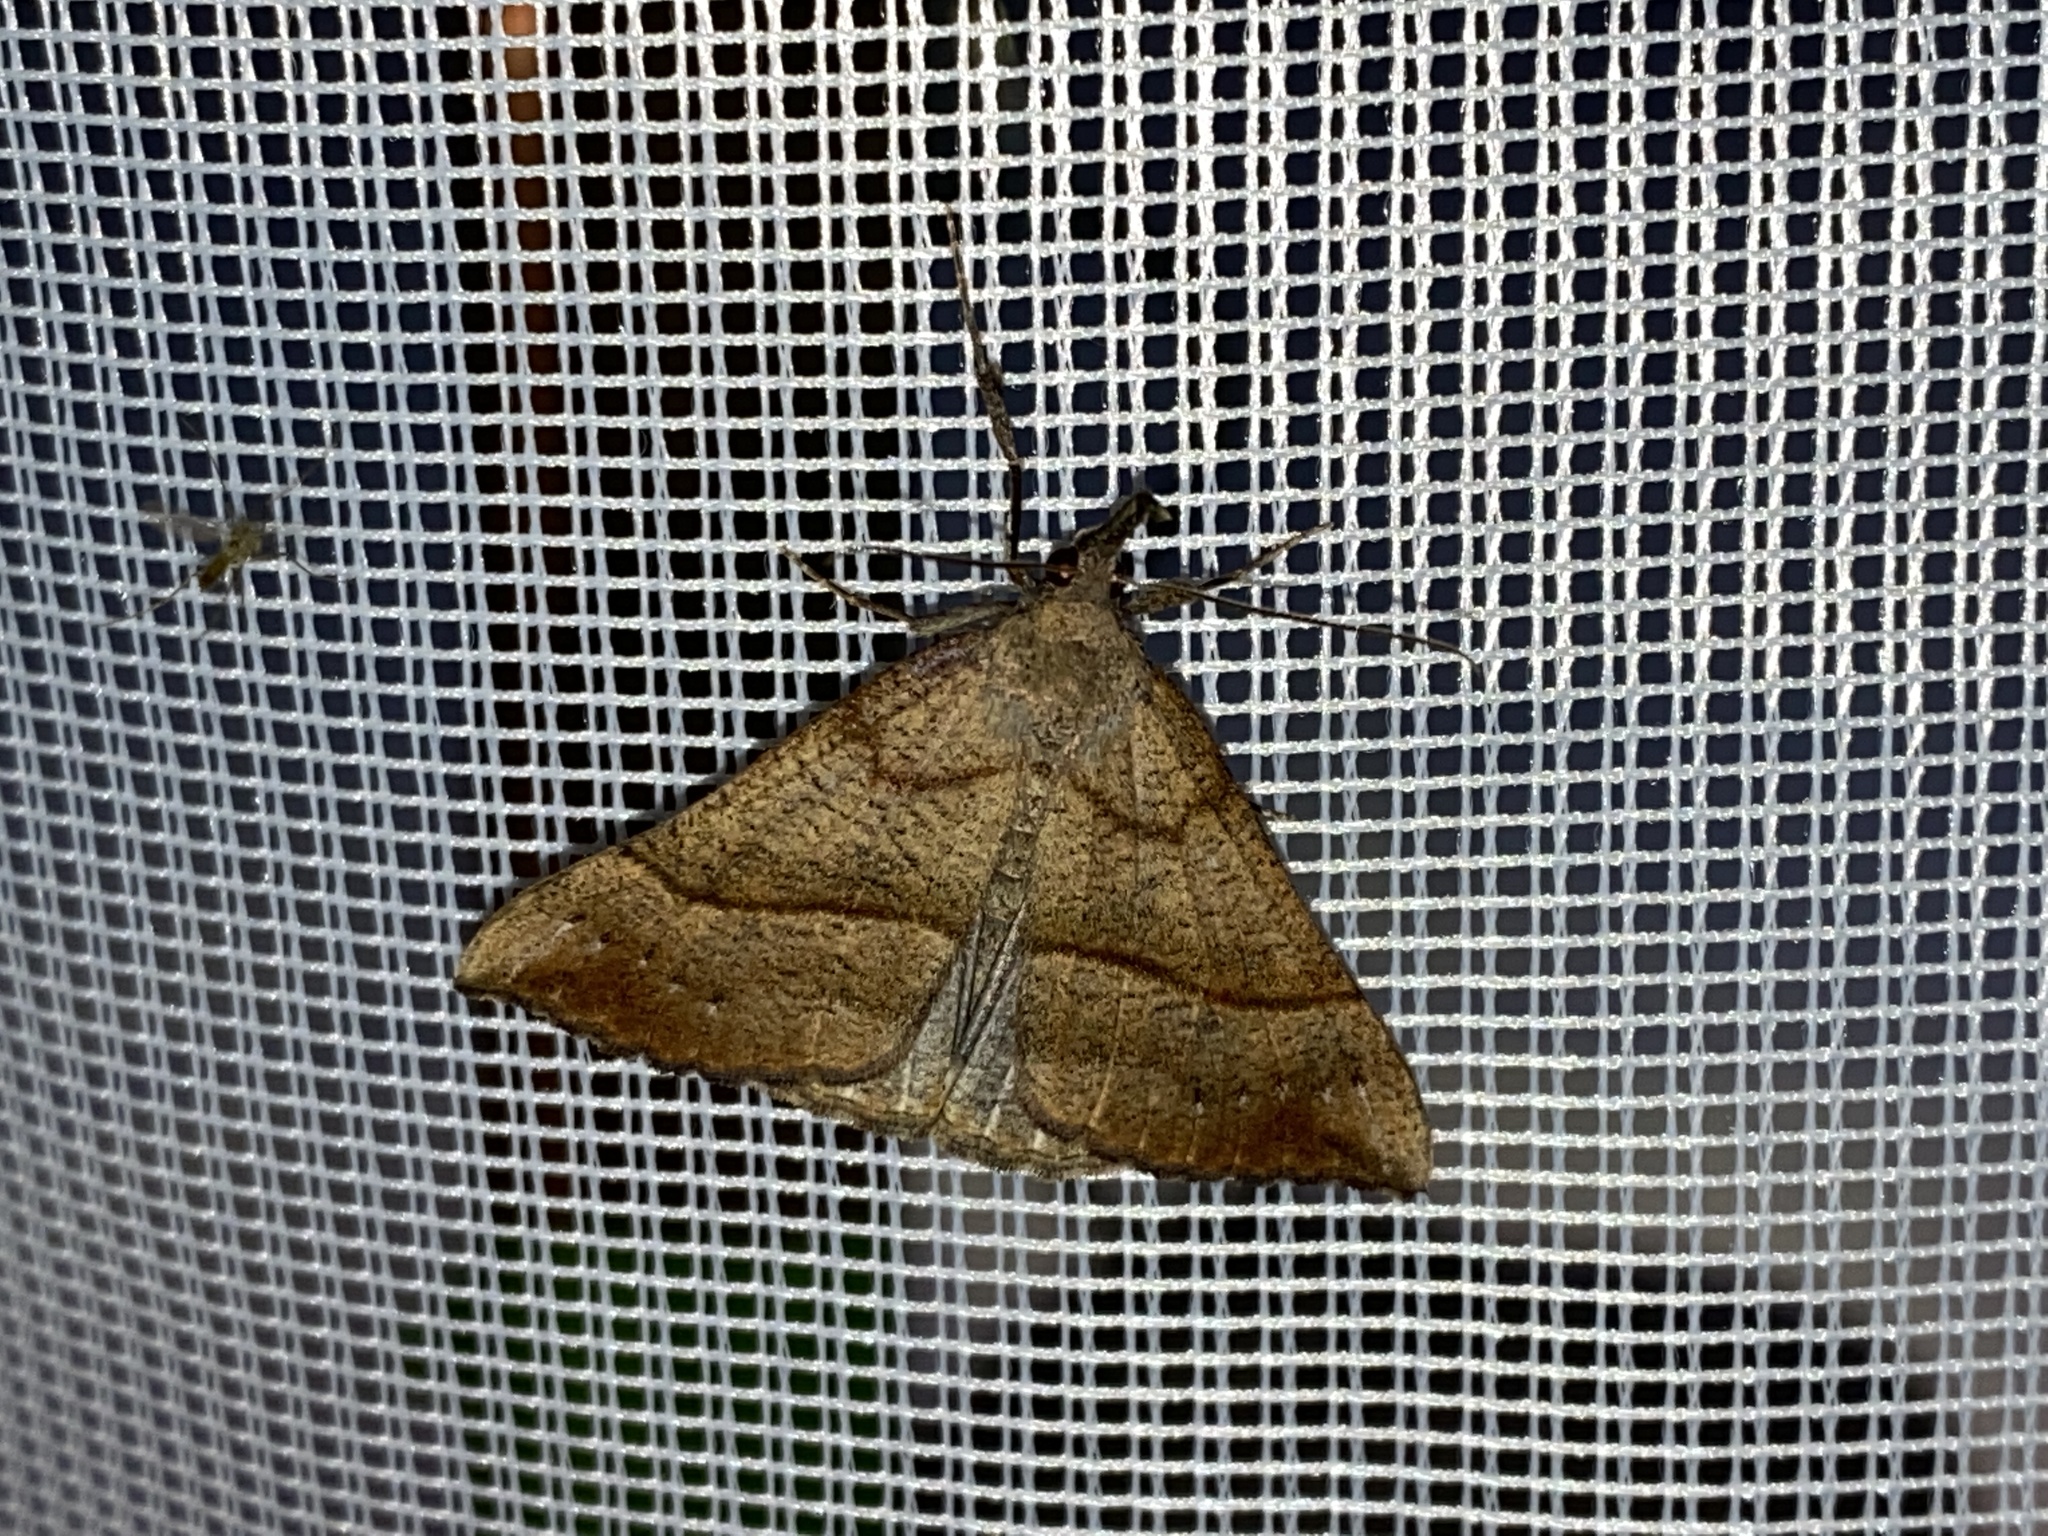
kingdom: Animalia
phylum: Arthropoda
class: Insecta
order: Lepidoptera
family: Erebidae
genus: Hypena
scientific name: Hypena proboscidalis
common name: Snout
